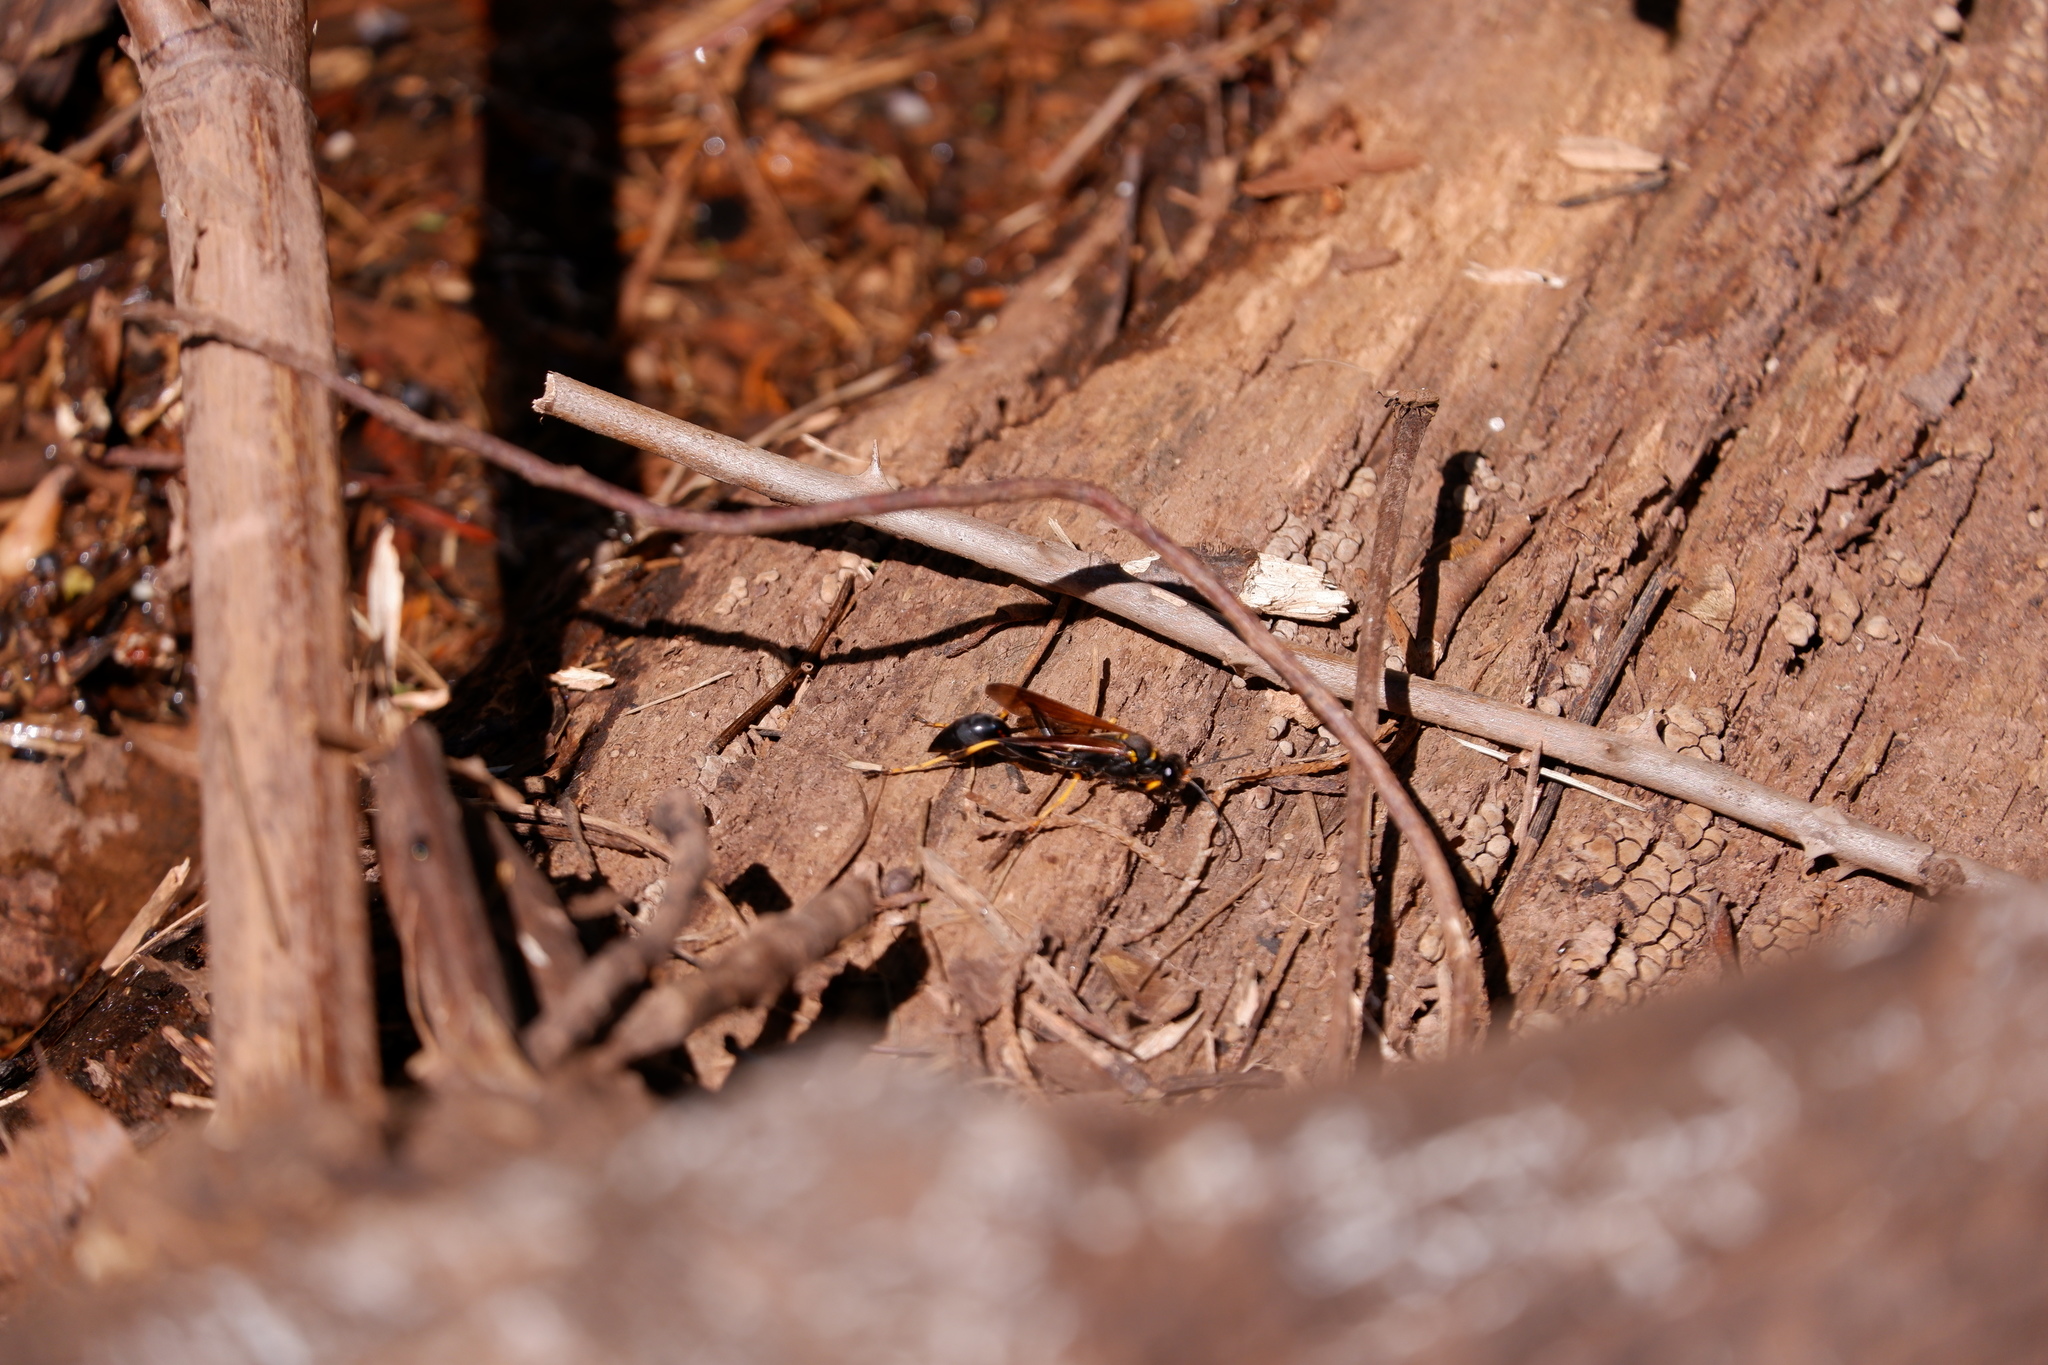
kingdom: Animalia
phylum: Arthropoda
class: Insecta
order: Hymenoptera
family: Sphecidae
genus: Sceliphron
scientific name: Sceliphron caementarium
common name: Mud dauber
